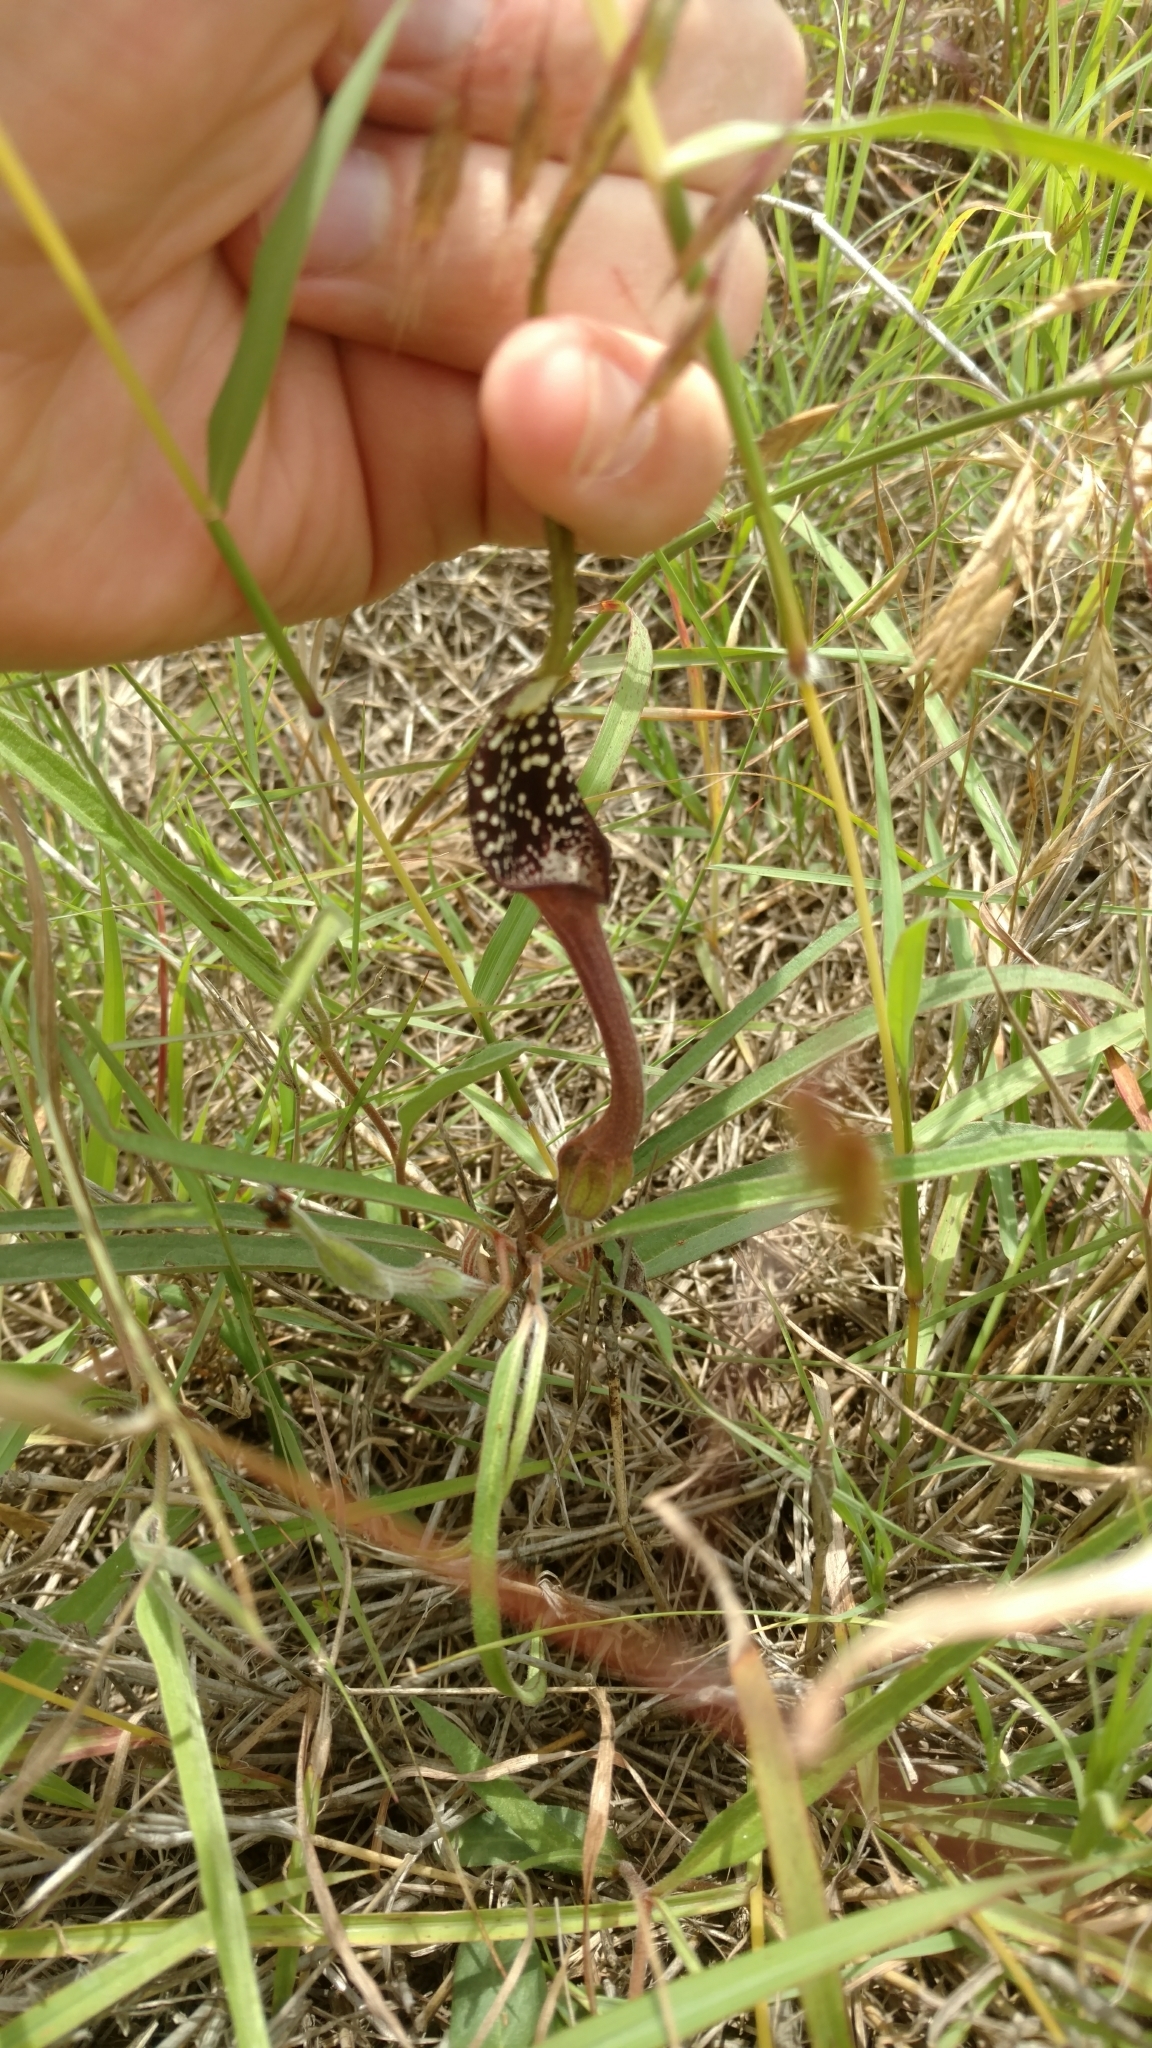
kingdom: Plantae
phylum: Tracheophyta
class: Magnoliopsida
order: Piperales
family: Aristolochiaceae
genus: Aristolochia
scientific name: Aristolochia erecta
